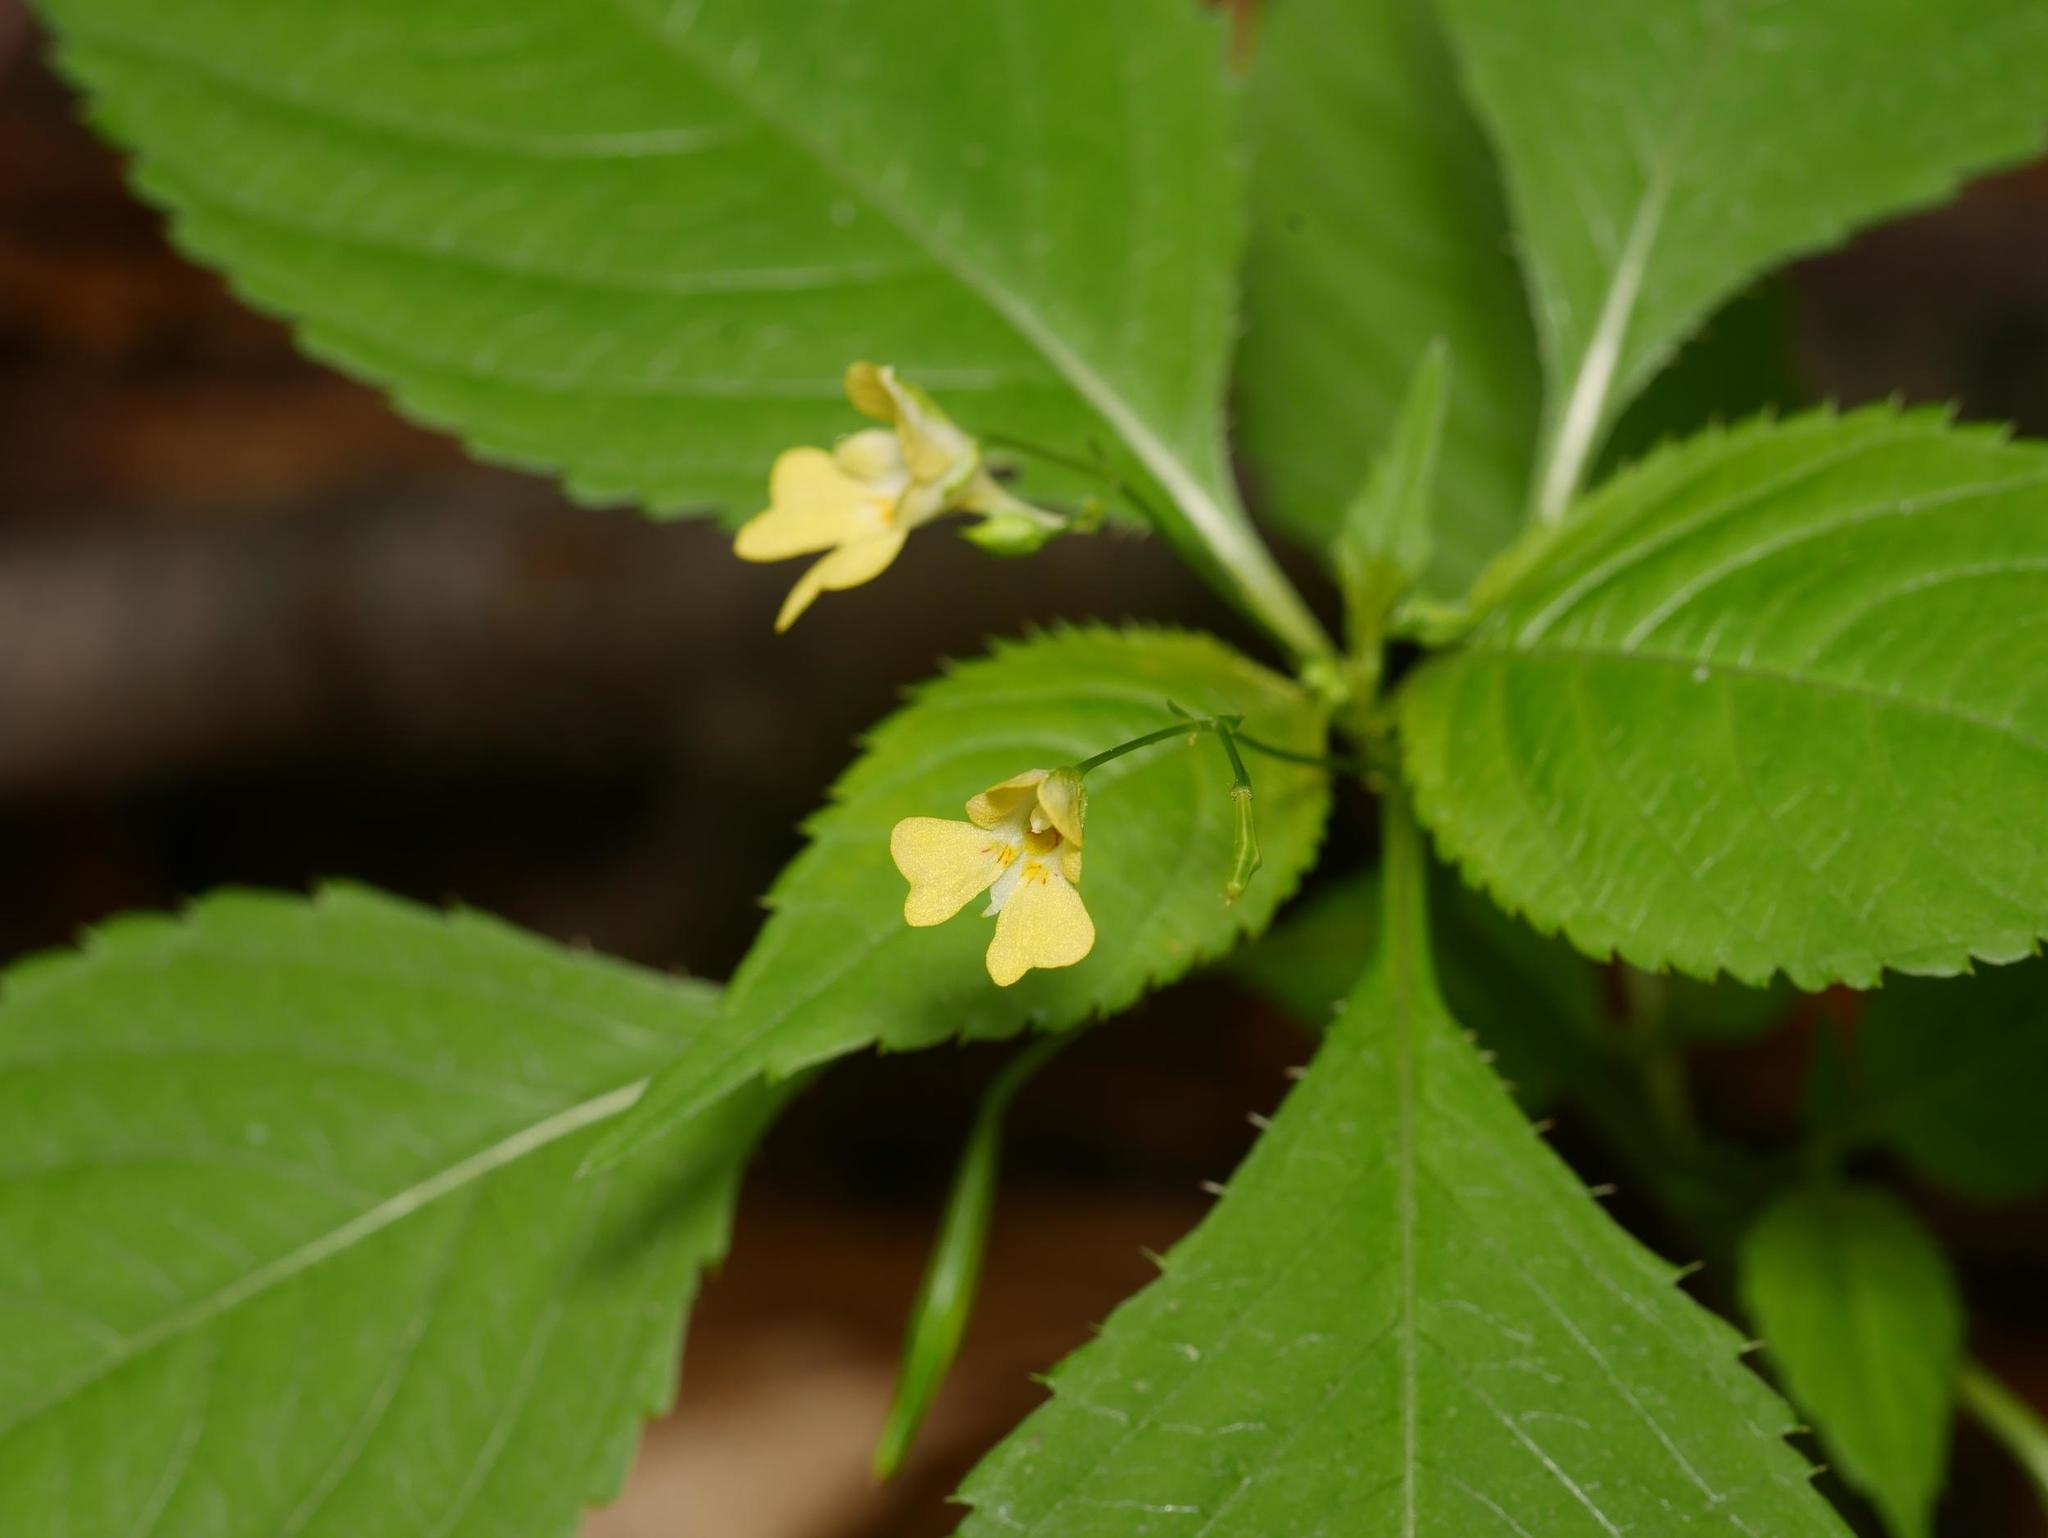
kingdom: Plantae
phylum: Tracheophyta
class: Magnoliopsida
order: Ericales
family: Balsaminaceae
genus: Impatiens
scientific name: Impatiens parviflora
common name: Small balsam
